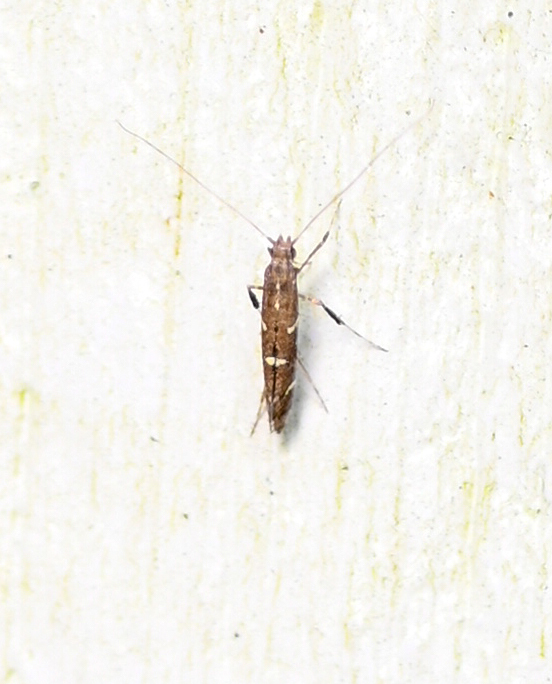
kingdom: Animalia
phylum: Arthropoda
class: Insecta
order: Lepidoptera
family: Gracillariidae
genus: Caloptilia
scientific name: Caloptilia triadicae
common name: Tallow leaf roller
